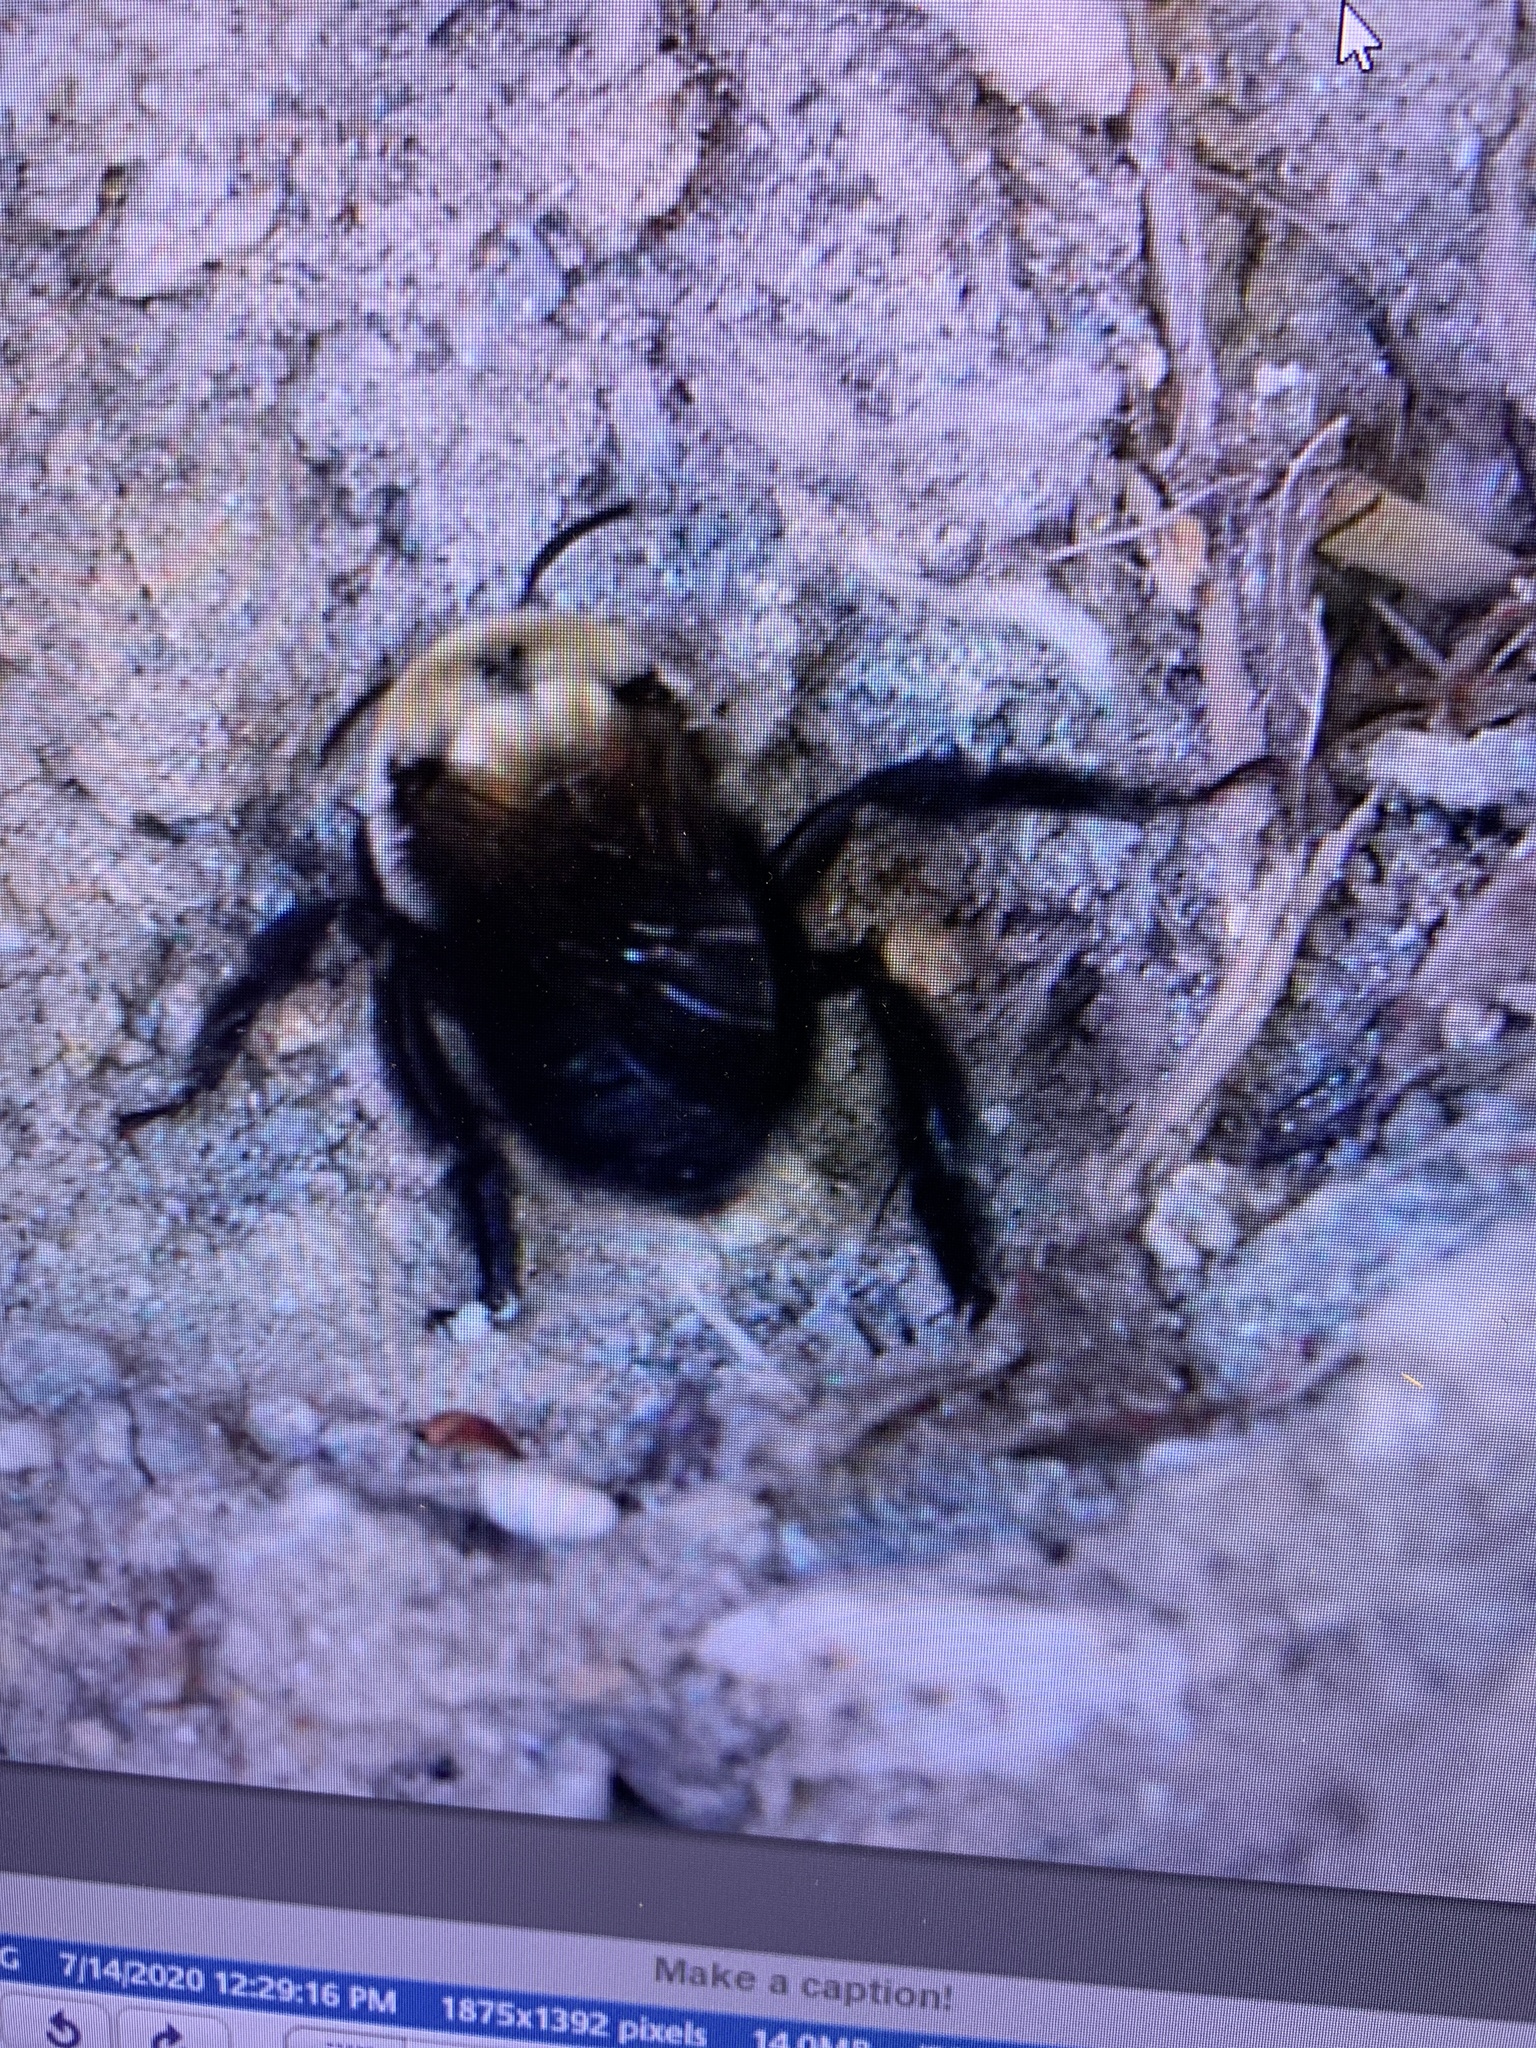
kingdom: Animalia
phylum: Arthropoda
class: Insecta
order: Hymenoptera
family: Apidae
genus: Anthophora
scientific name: Anthophora abrupta
